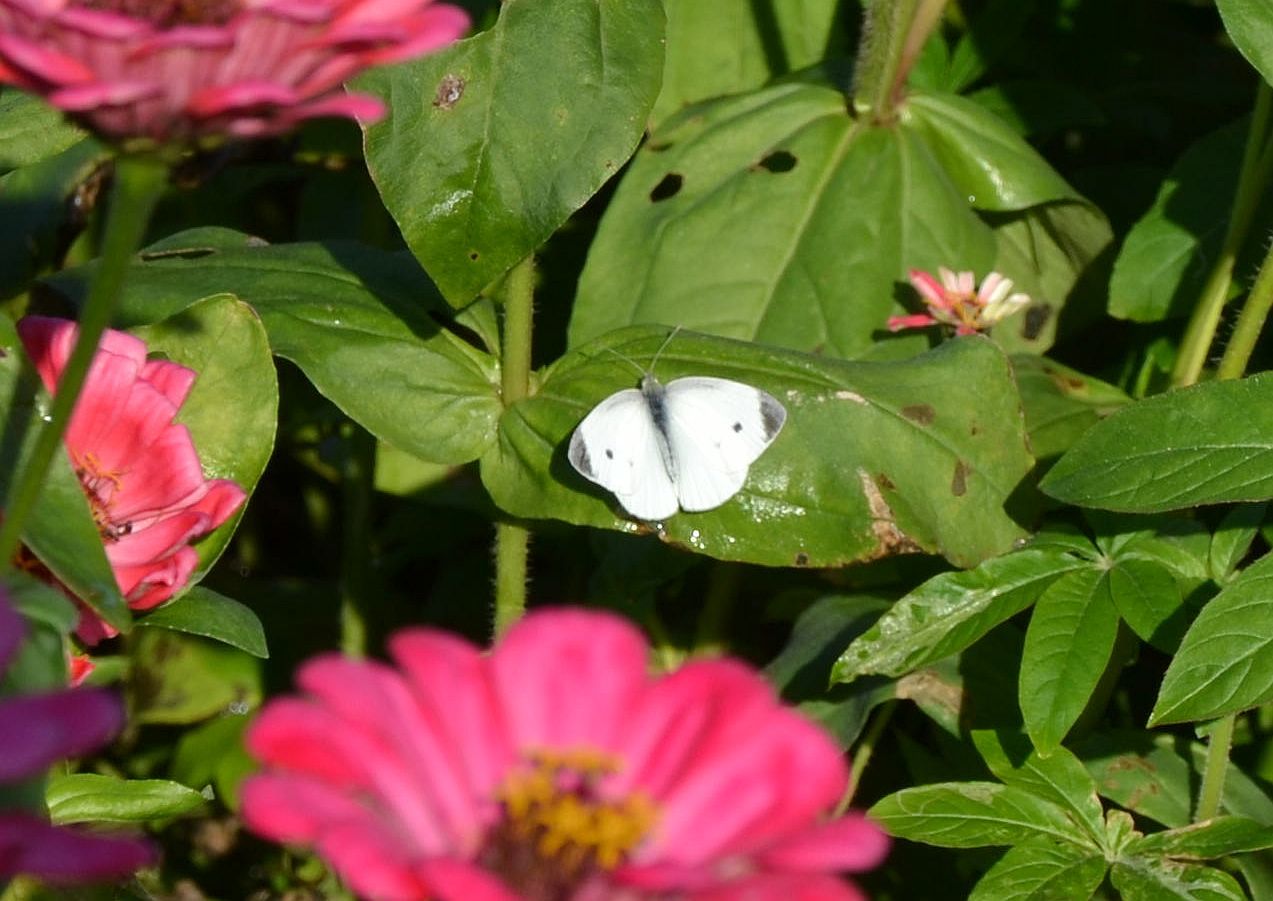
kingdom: Animalia
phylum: Arthropoda
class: Insecta
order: Lepidoptera
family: Pieridae
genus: Pieris
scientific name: Pieris rapae
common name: Small white
